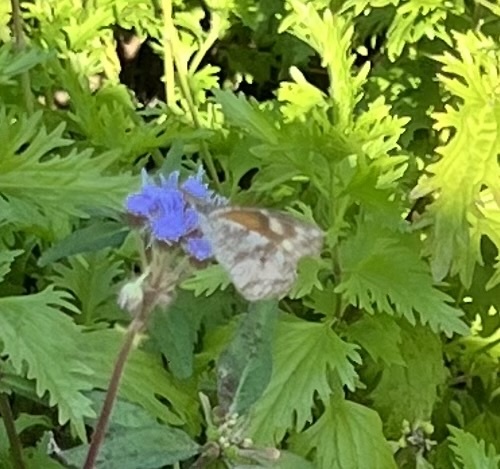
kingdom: Animalia
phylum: Arthropoda
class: Insecta
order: Lepidoptera
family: Nymphalidae
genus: Libytheana
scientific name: Libytheana carinenta
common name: American snout
